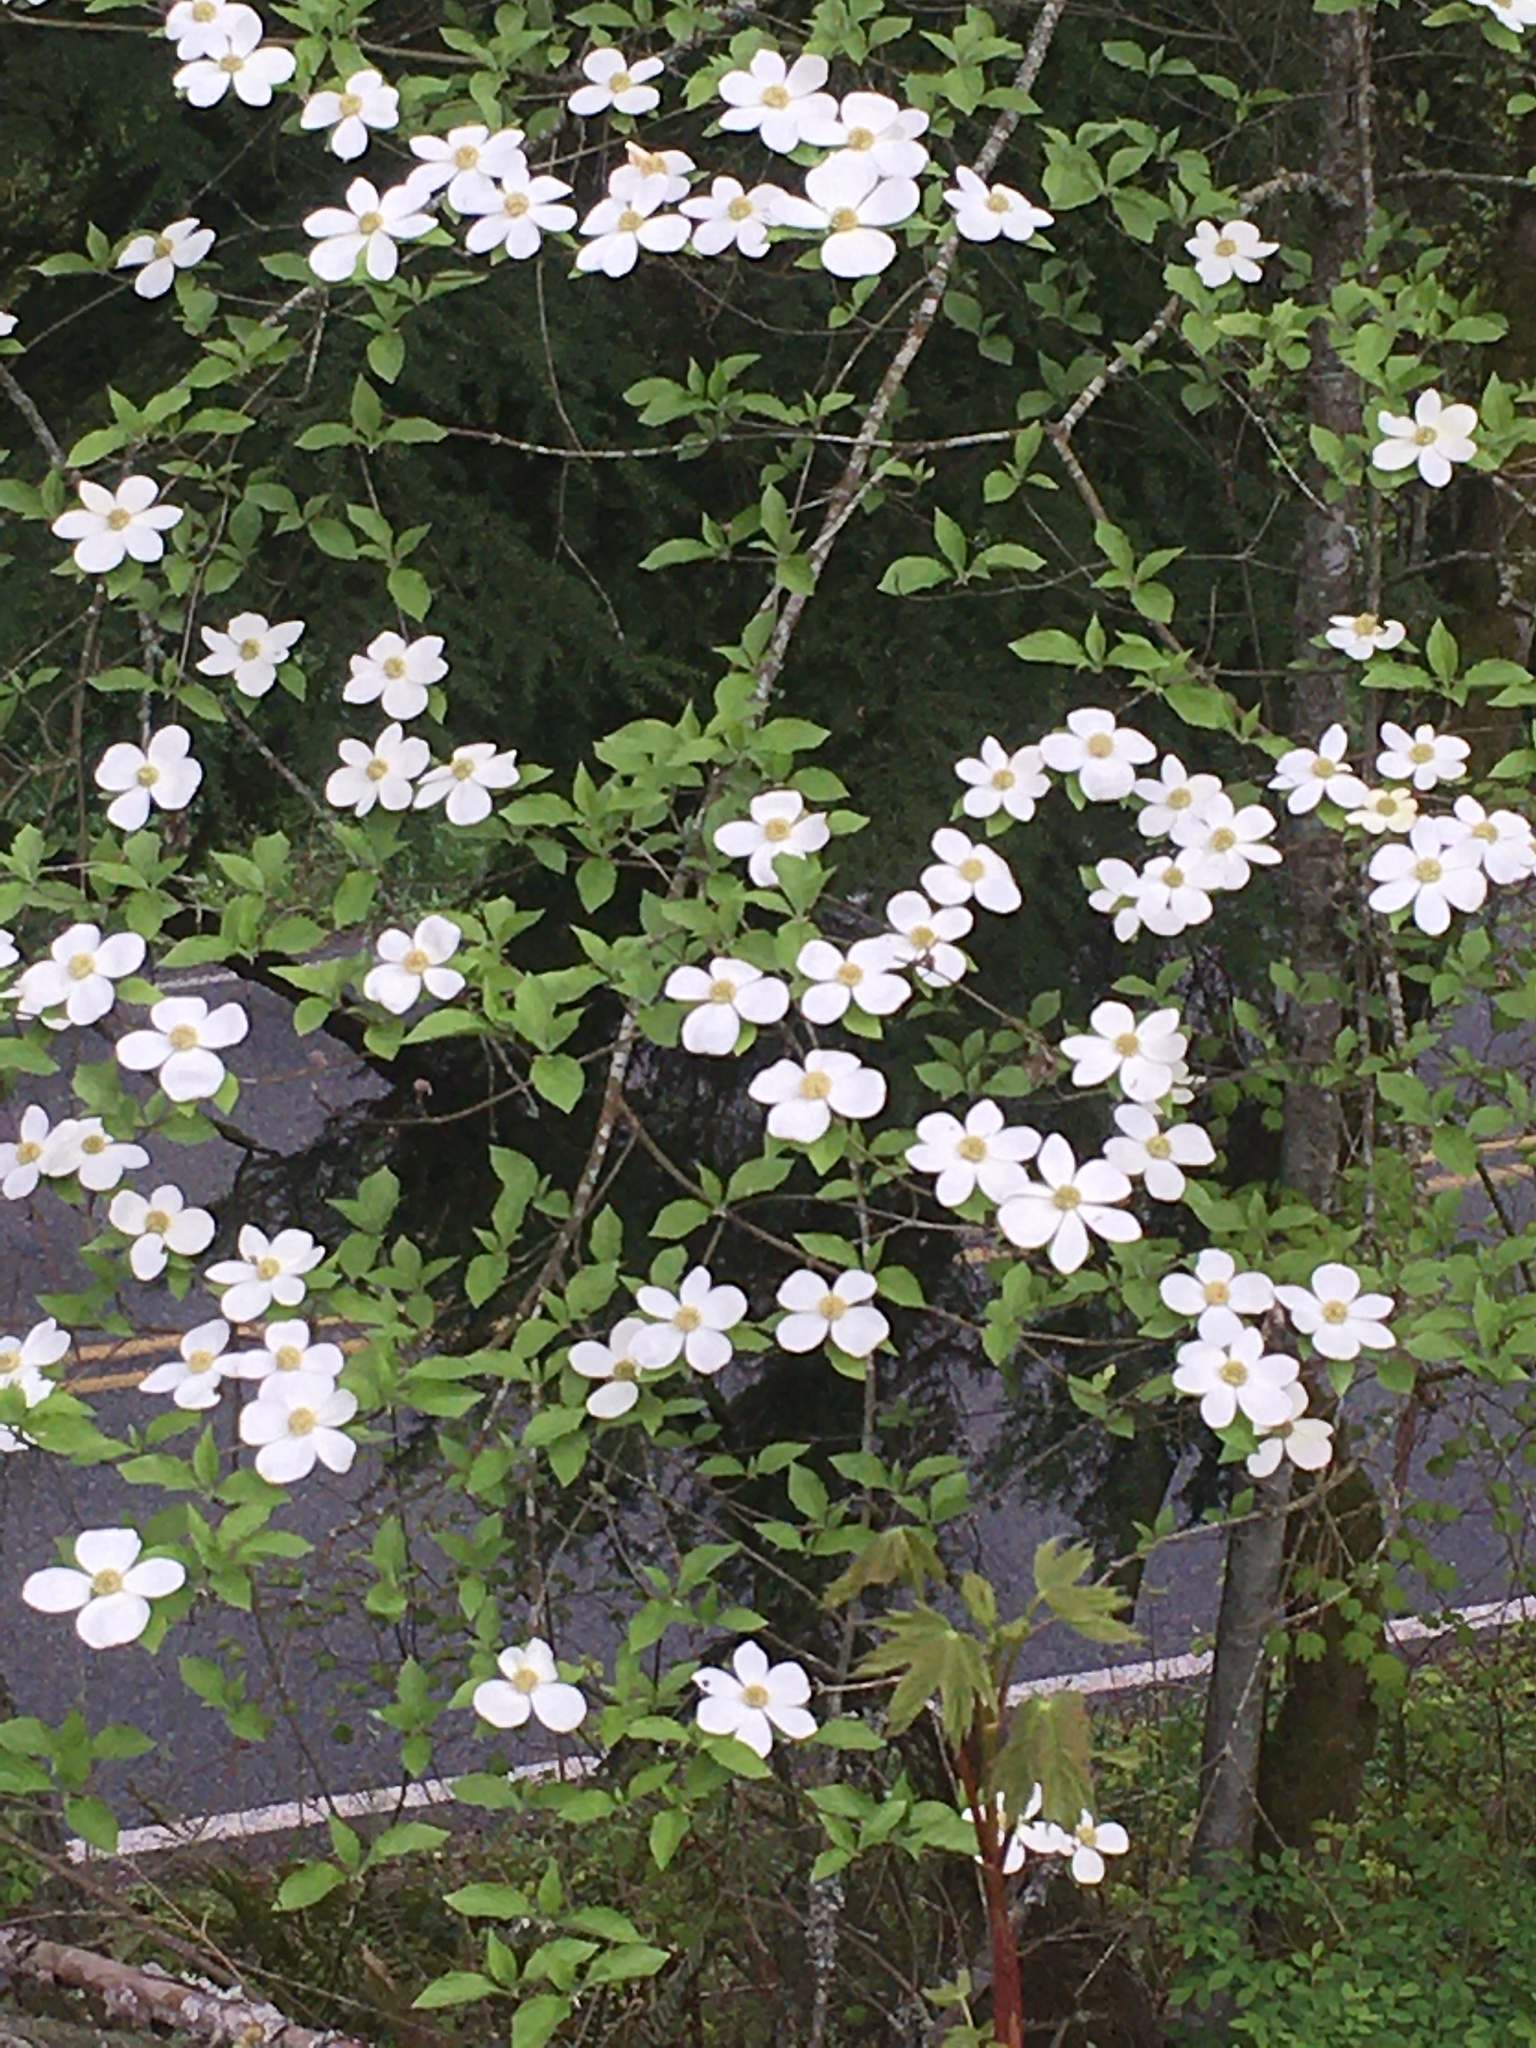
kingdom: Plantae
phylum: Tracheophyta
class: Magnoliopsida
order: Cornales
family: Cornaceae
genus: Cornus
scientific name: Cornus nuttallii
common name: Pacific dogwood
